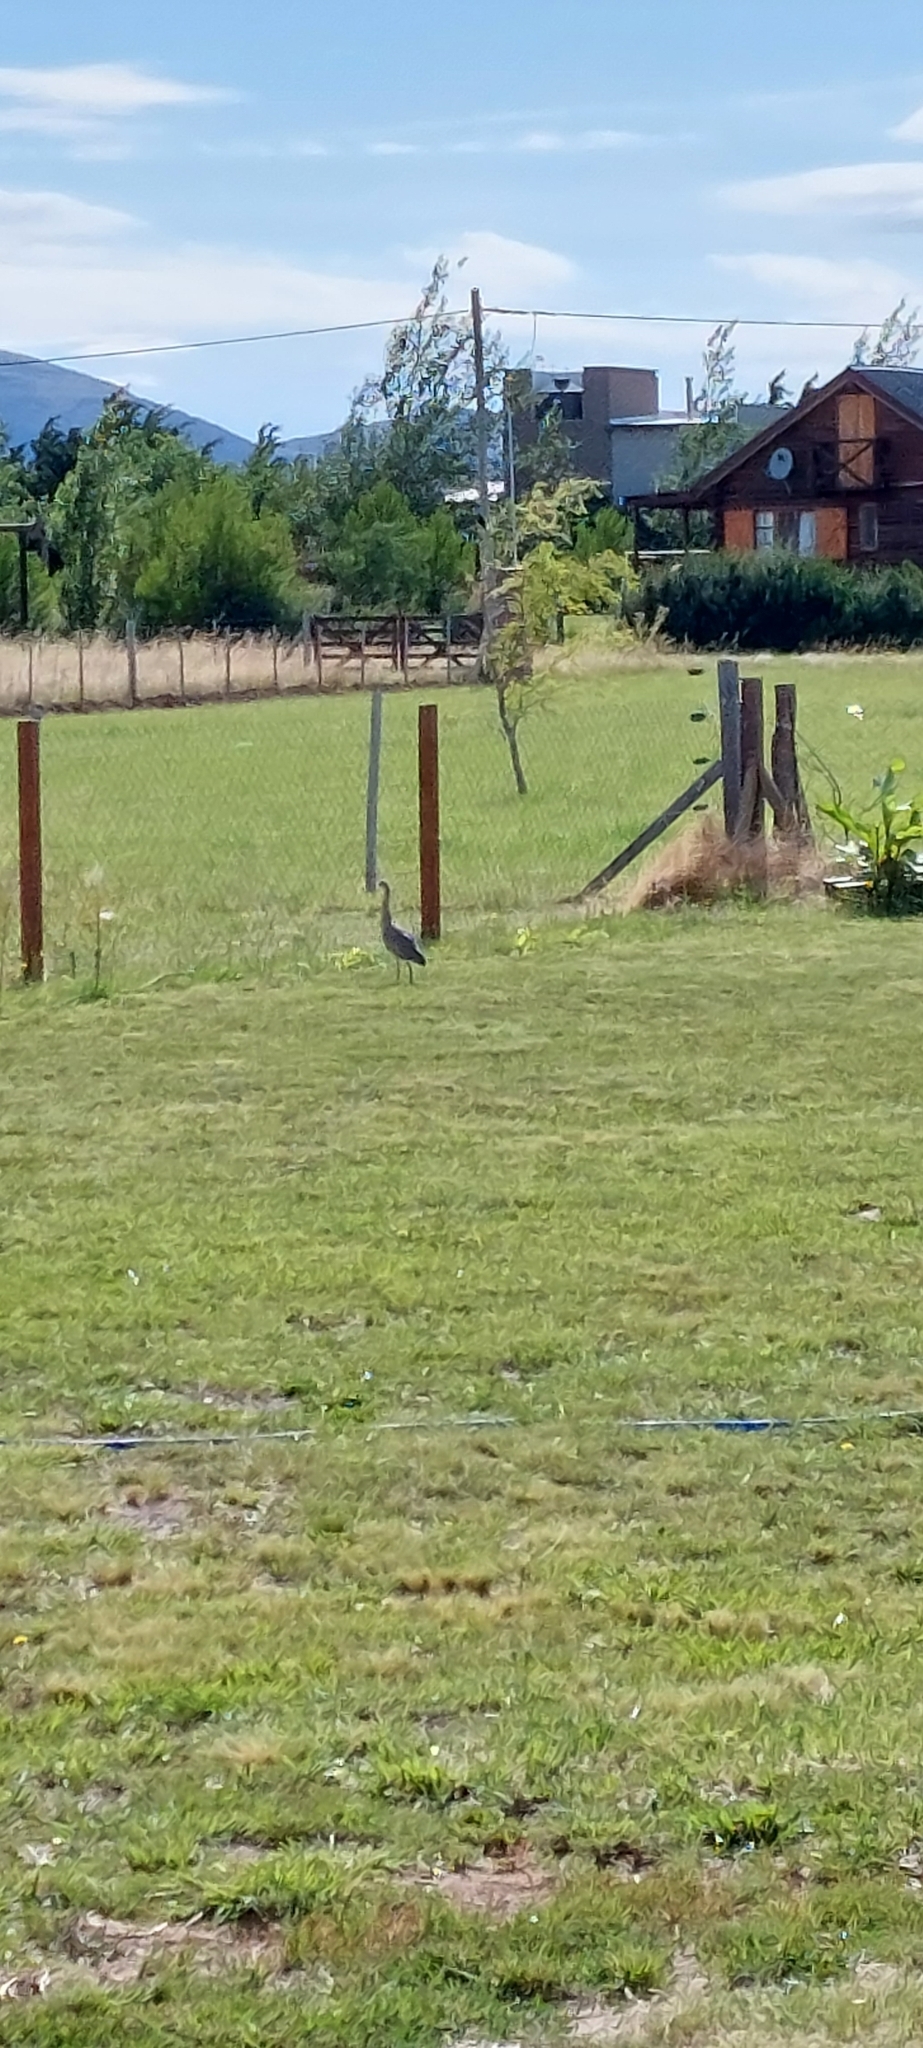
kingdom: Animalia
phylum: Chordata
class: Aves
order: Pelecaniformes
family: Ardeidae
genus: Syrigma
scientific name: Syrigma sibilatrix
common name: Whistling heron
